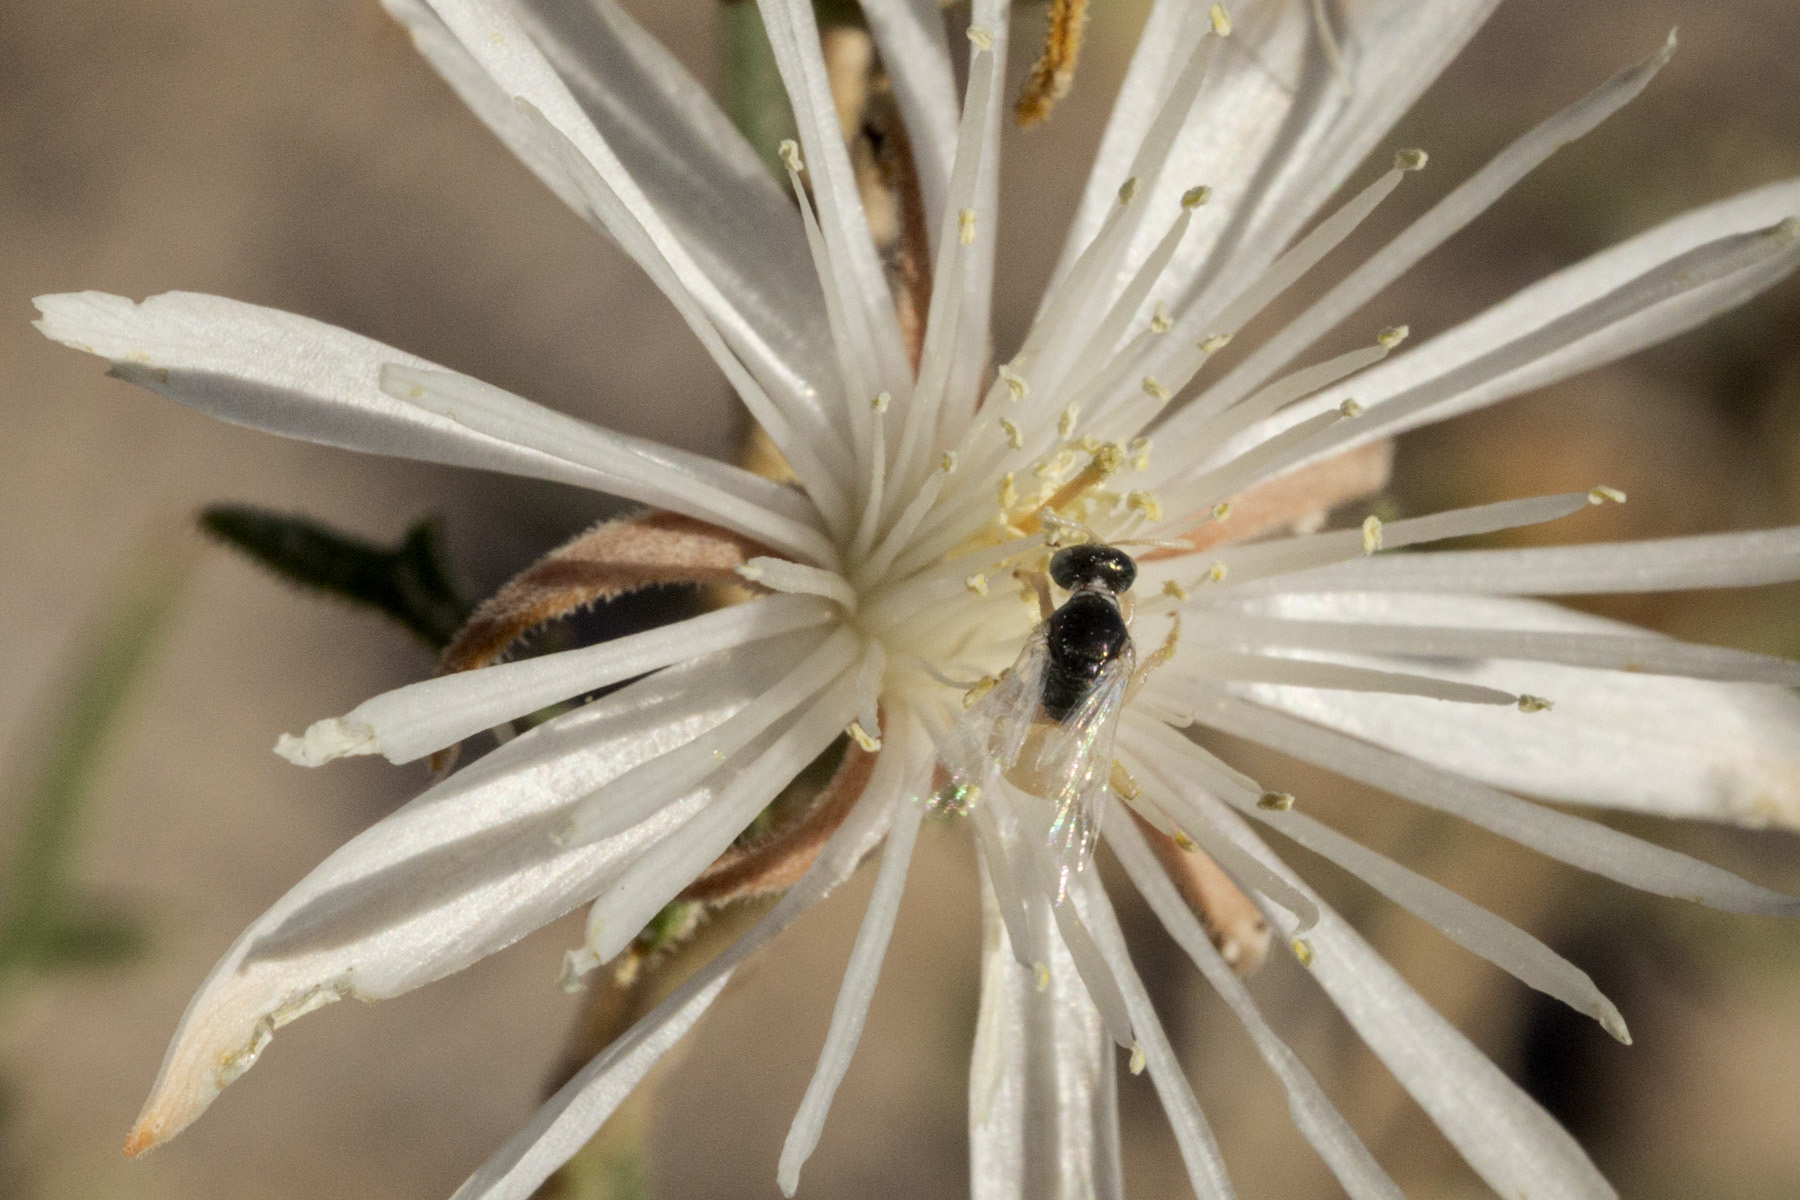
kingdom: Animalia
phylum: Arthropoda
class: Insecta
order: Hymenoptera
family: Andrenidae
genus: Perdita
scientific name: Perdita mentzeliarum
